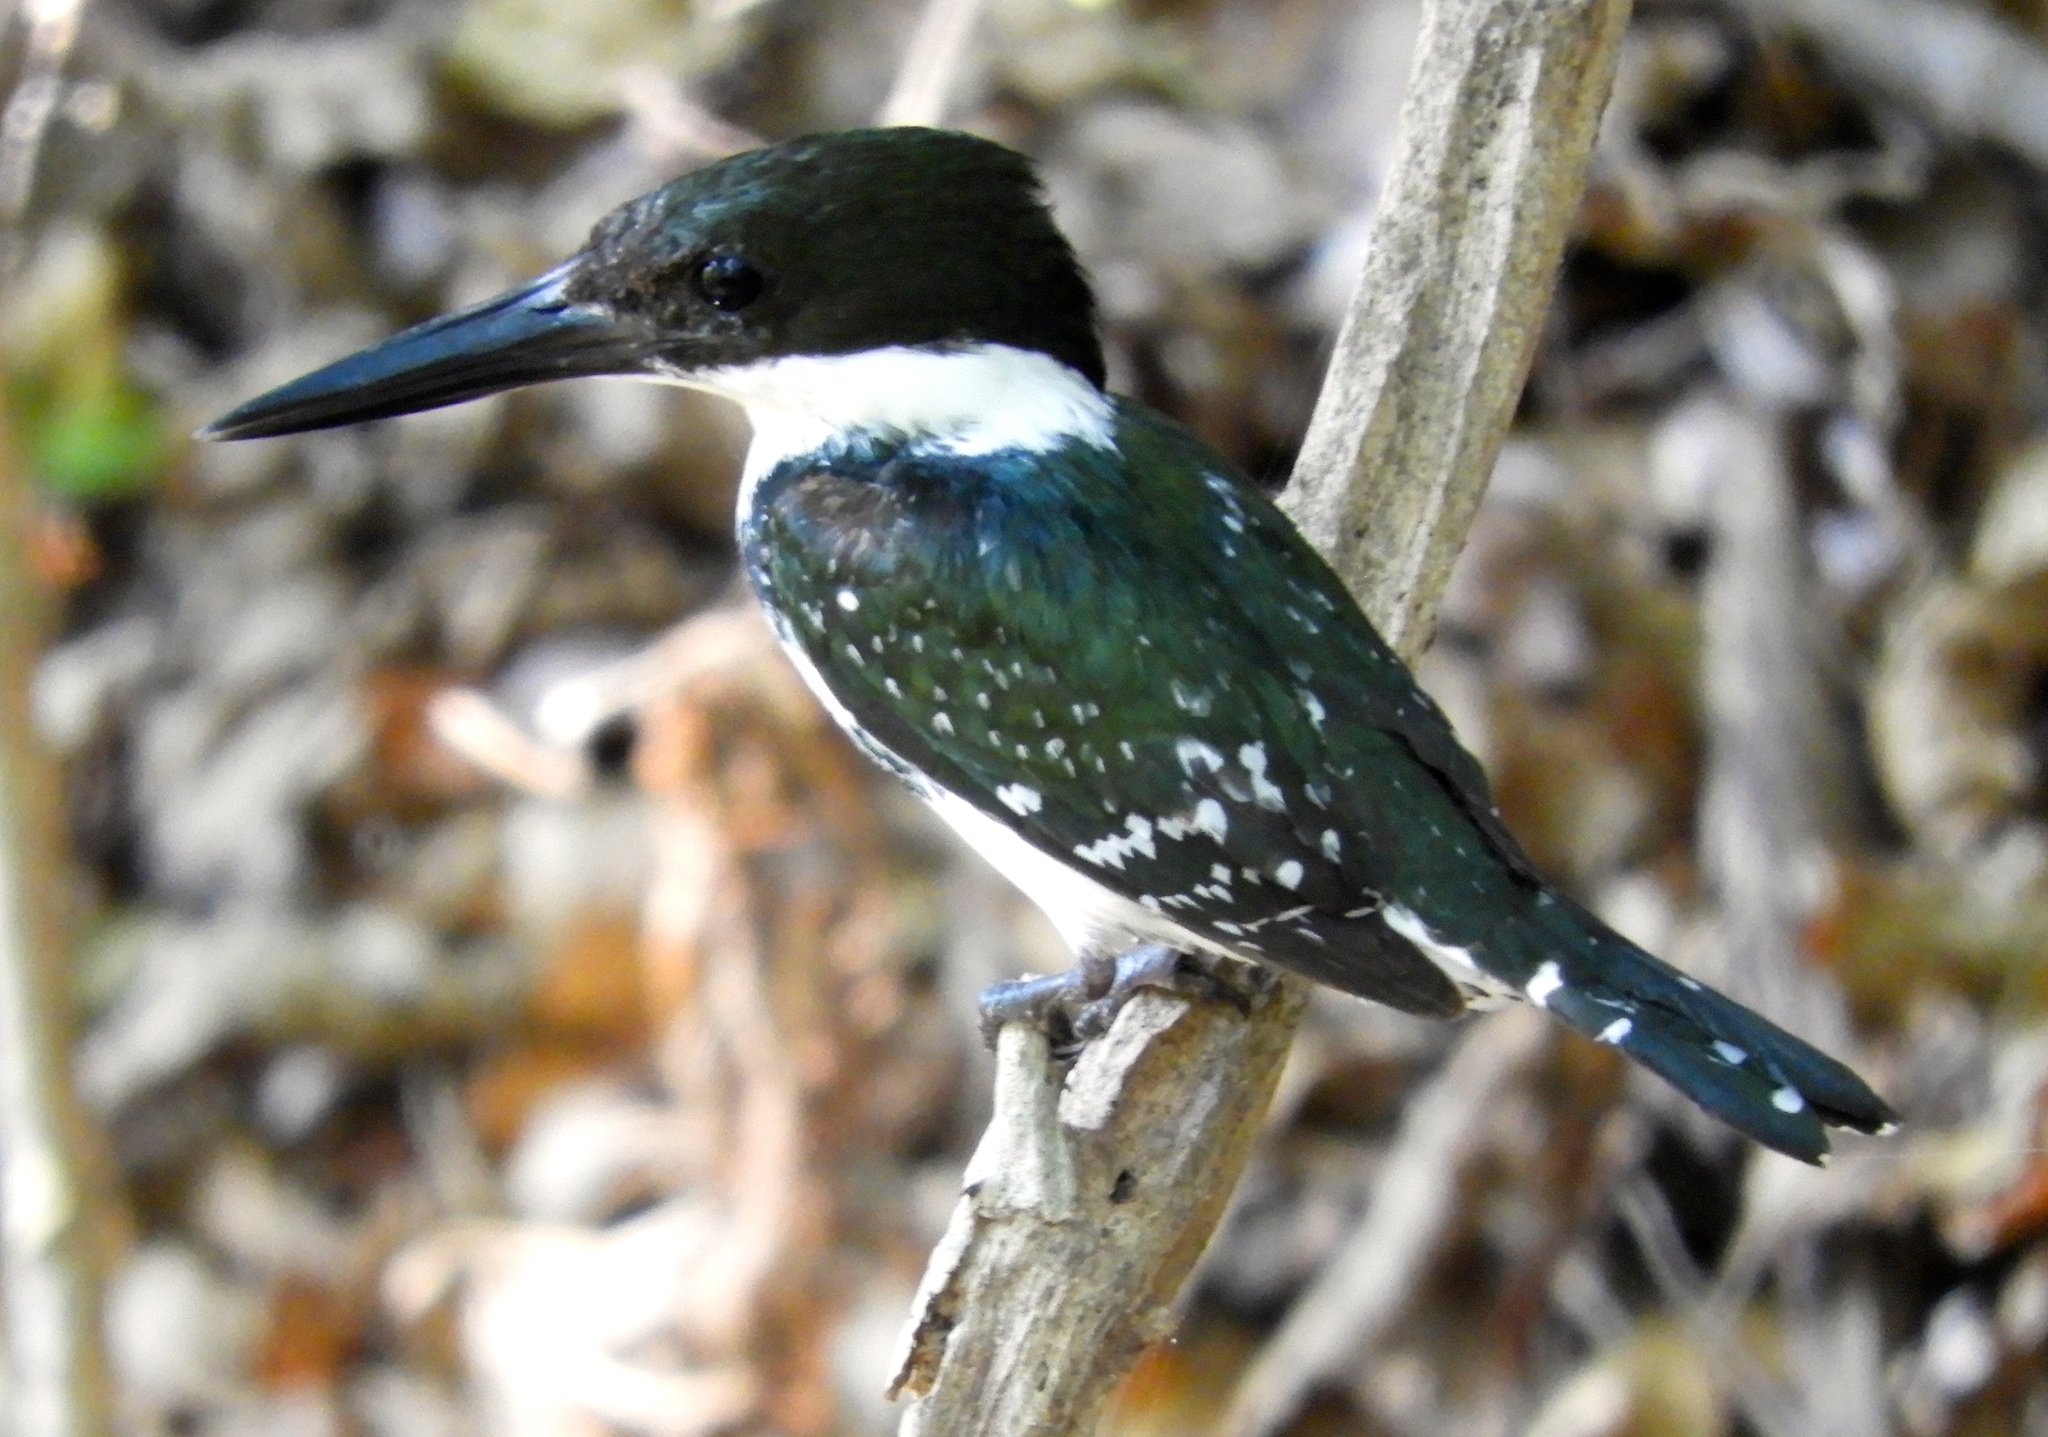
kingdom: Animalia
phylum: Chordata
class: Aves
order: Coraciiformes
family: Alcedinidae
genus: Chloroceryle
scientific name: Chloroceryle americana
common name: Green kingfisher
